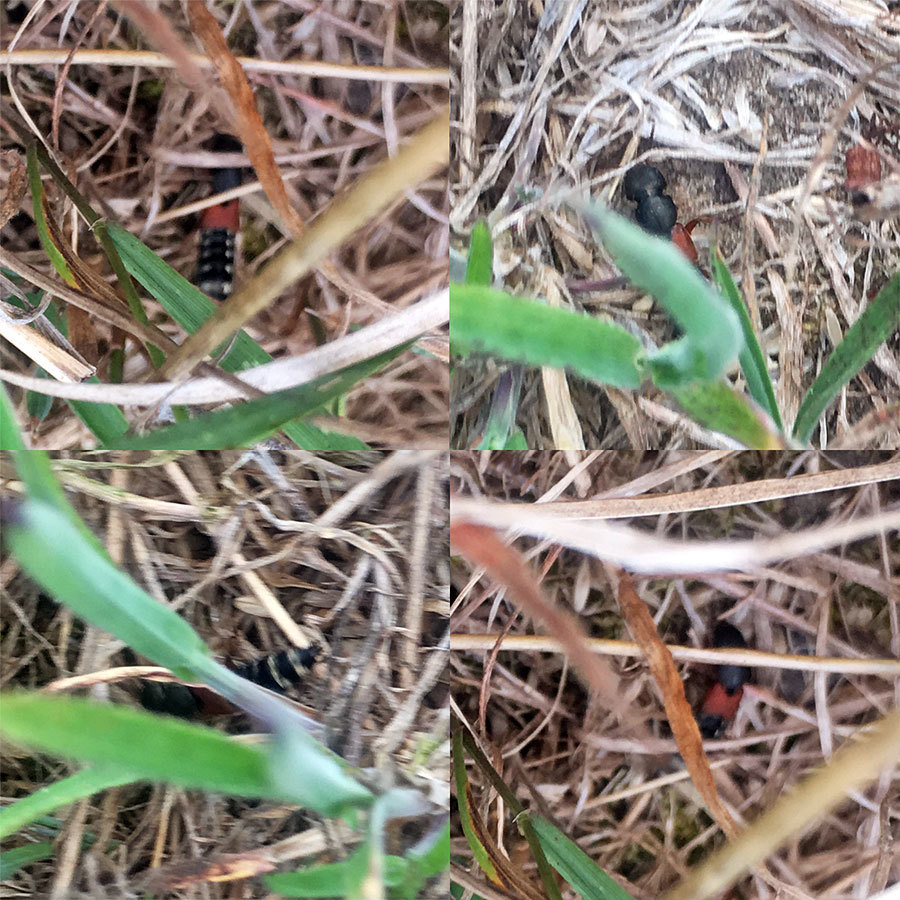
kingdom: Animalia
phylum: Arthropoda
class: Insecta
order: Coleoptera
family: Staphylinidae
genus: Platydracus
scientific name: Platydracus stercorarius
